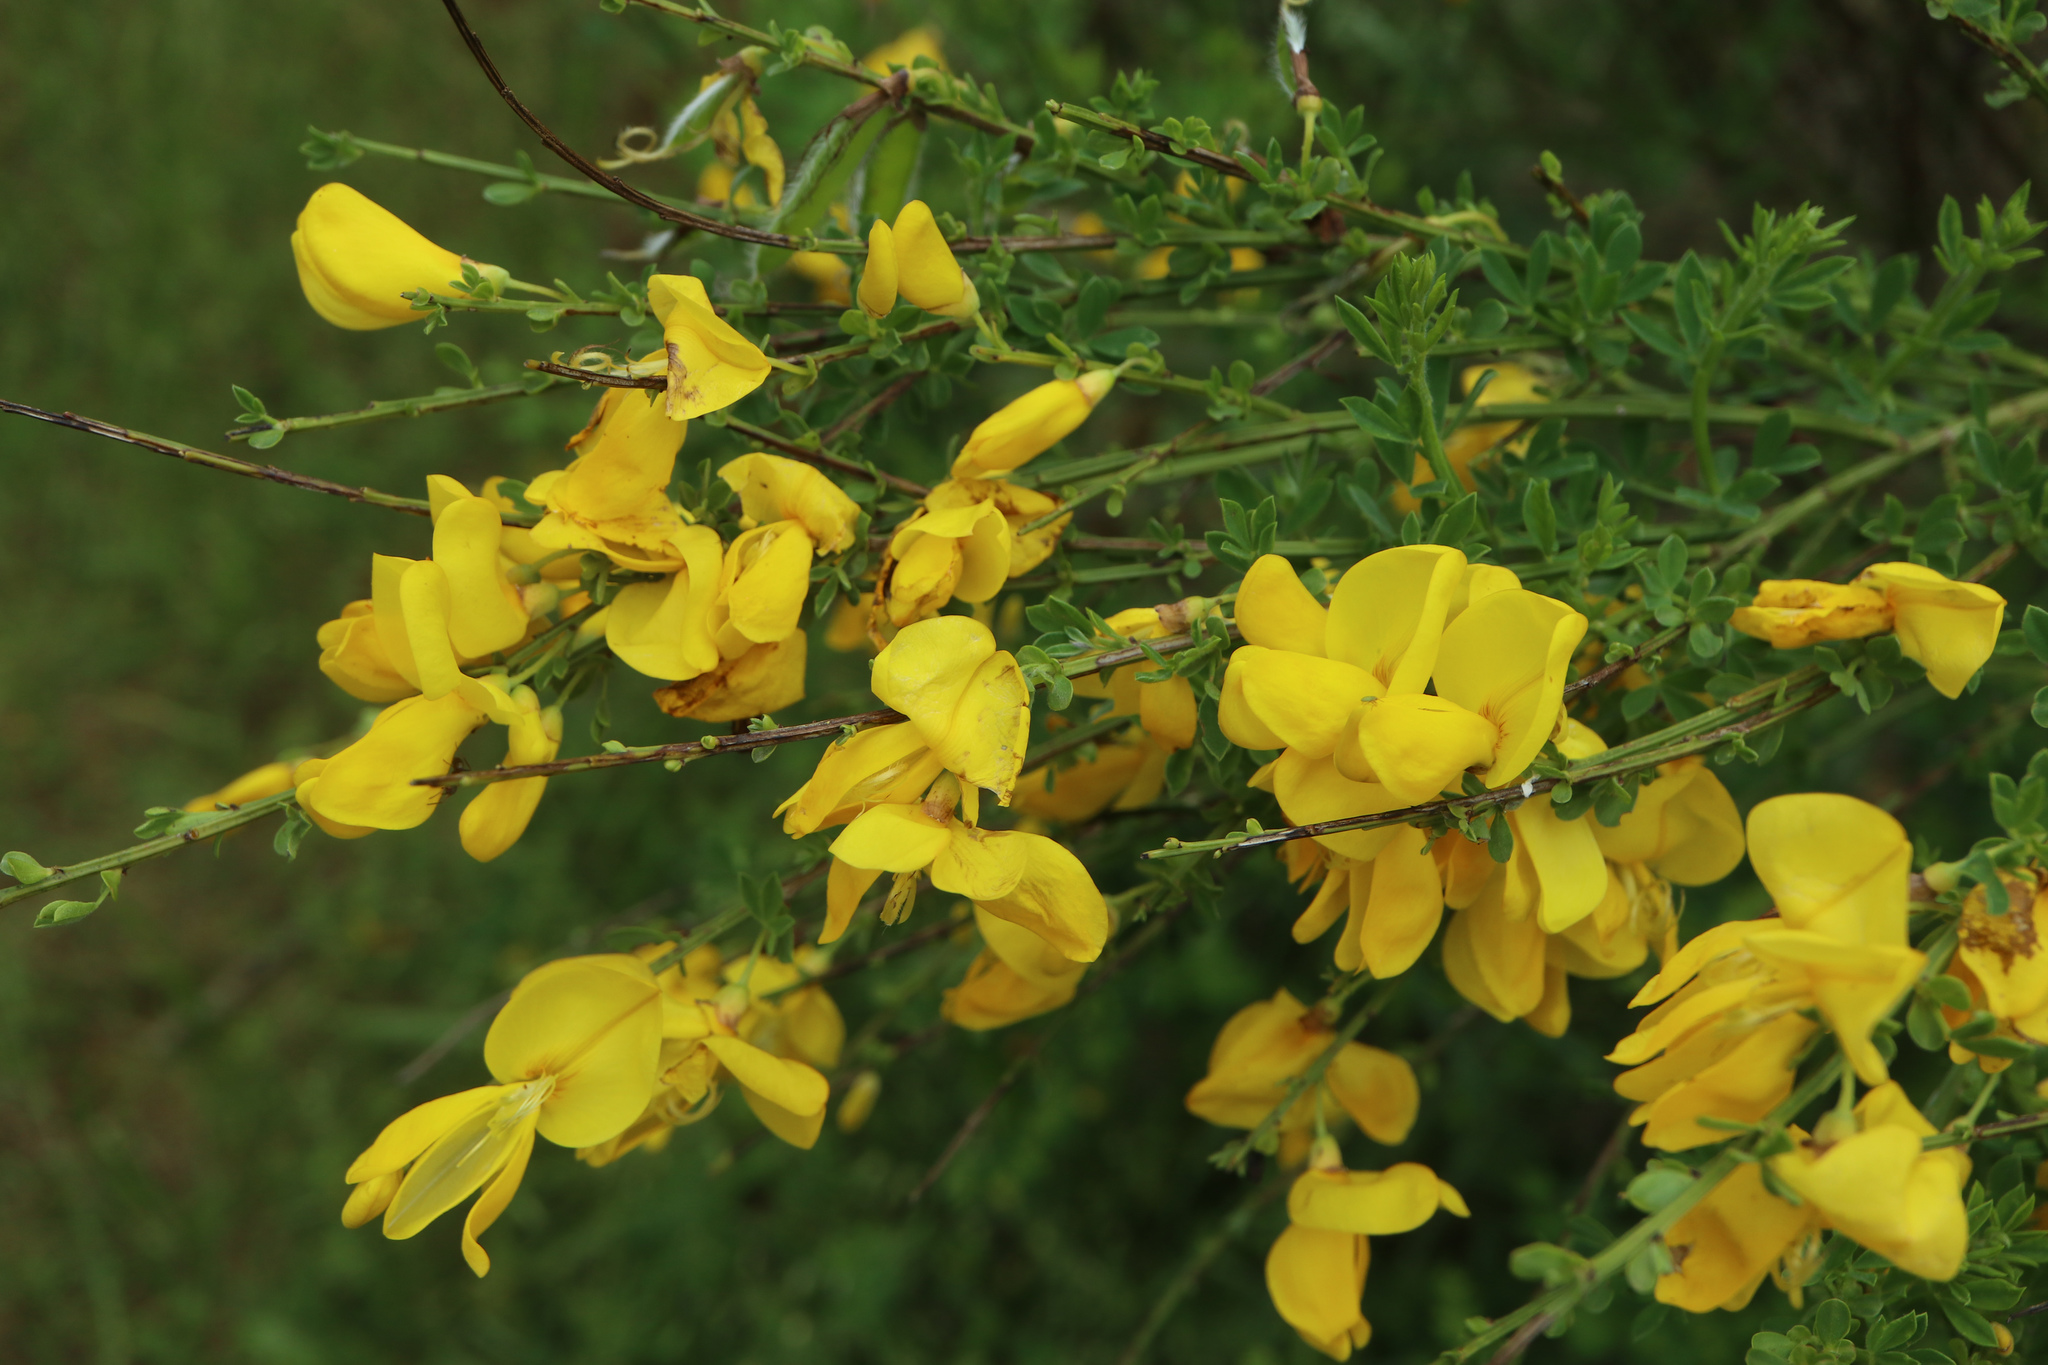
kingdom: Plantae
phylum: Tracheophyta
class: Magnoliopsida
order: Fabales
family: Fabaceae
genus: Cytisus
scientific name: Cytisus scoparius
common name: Scotch broom
